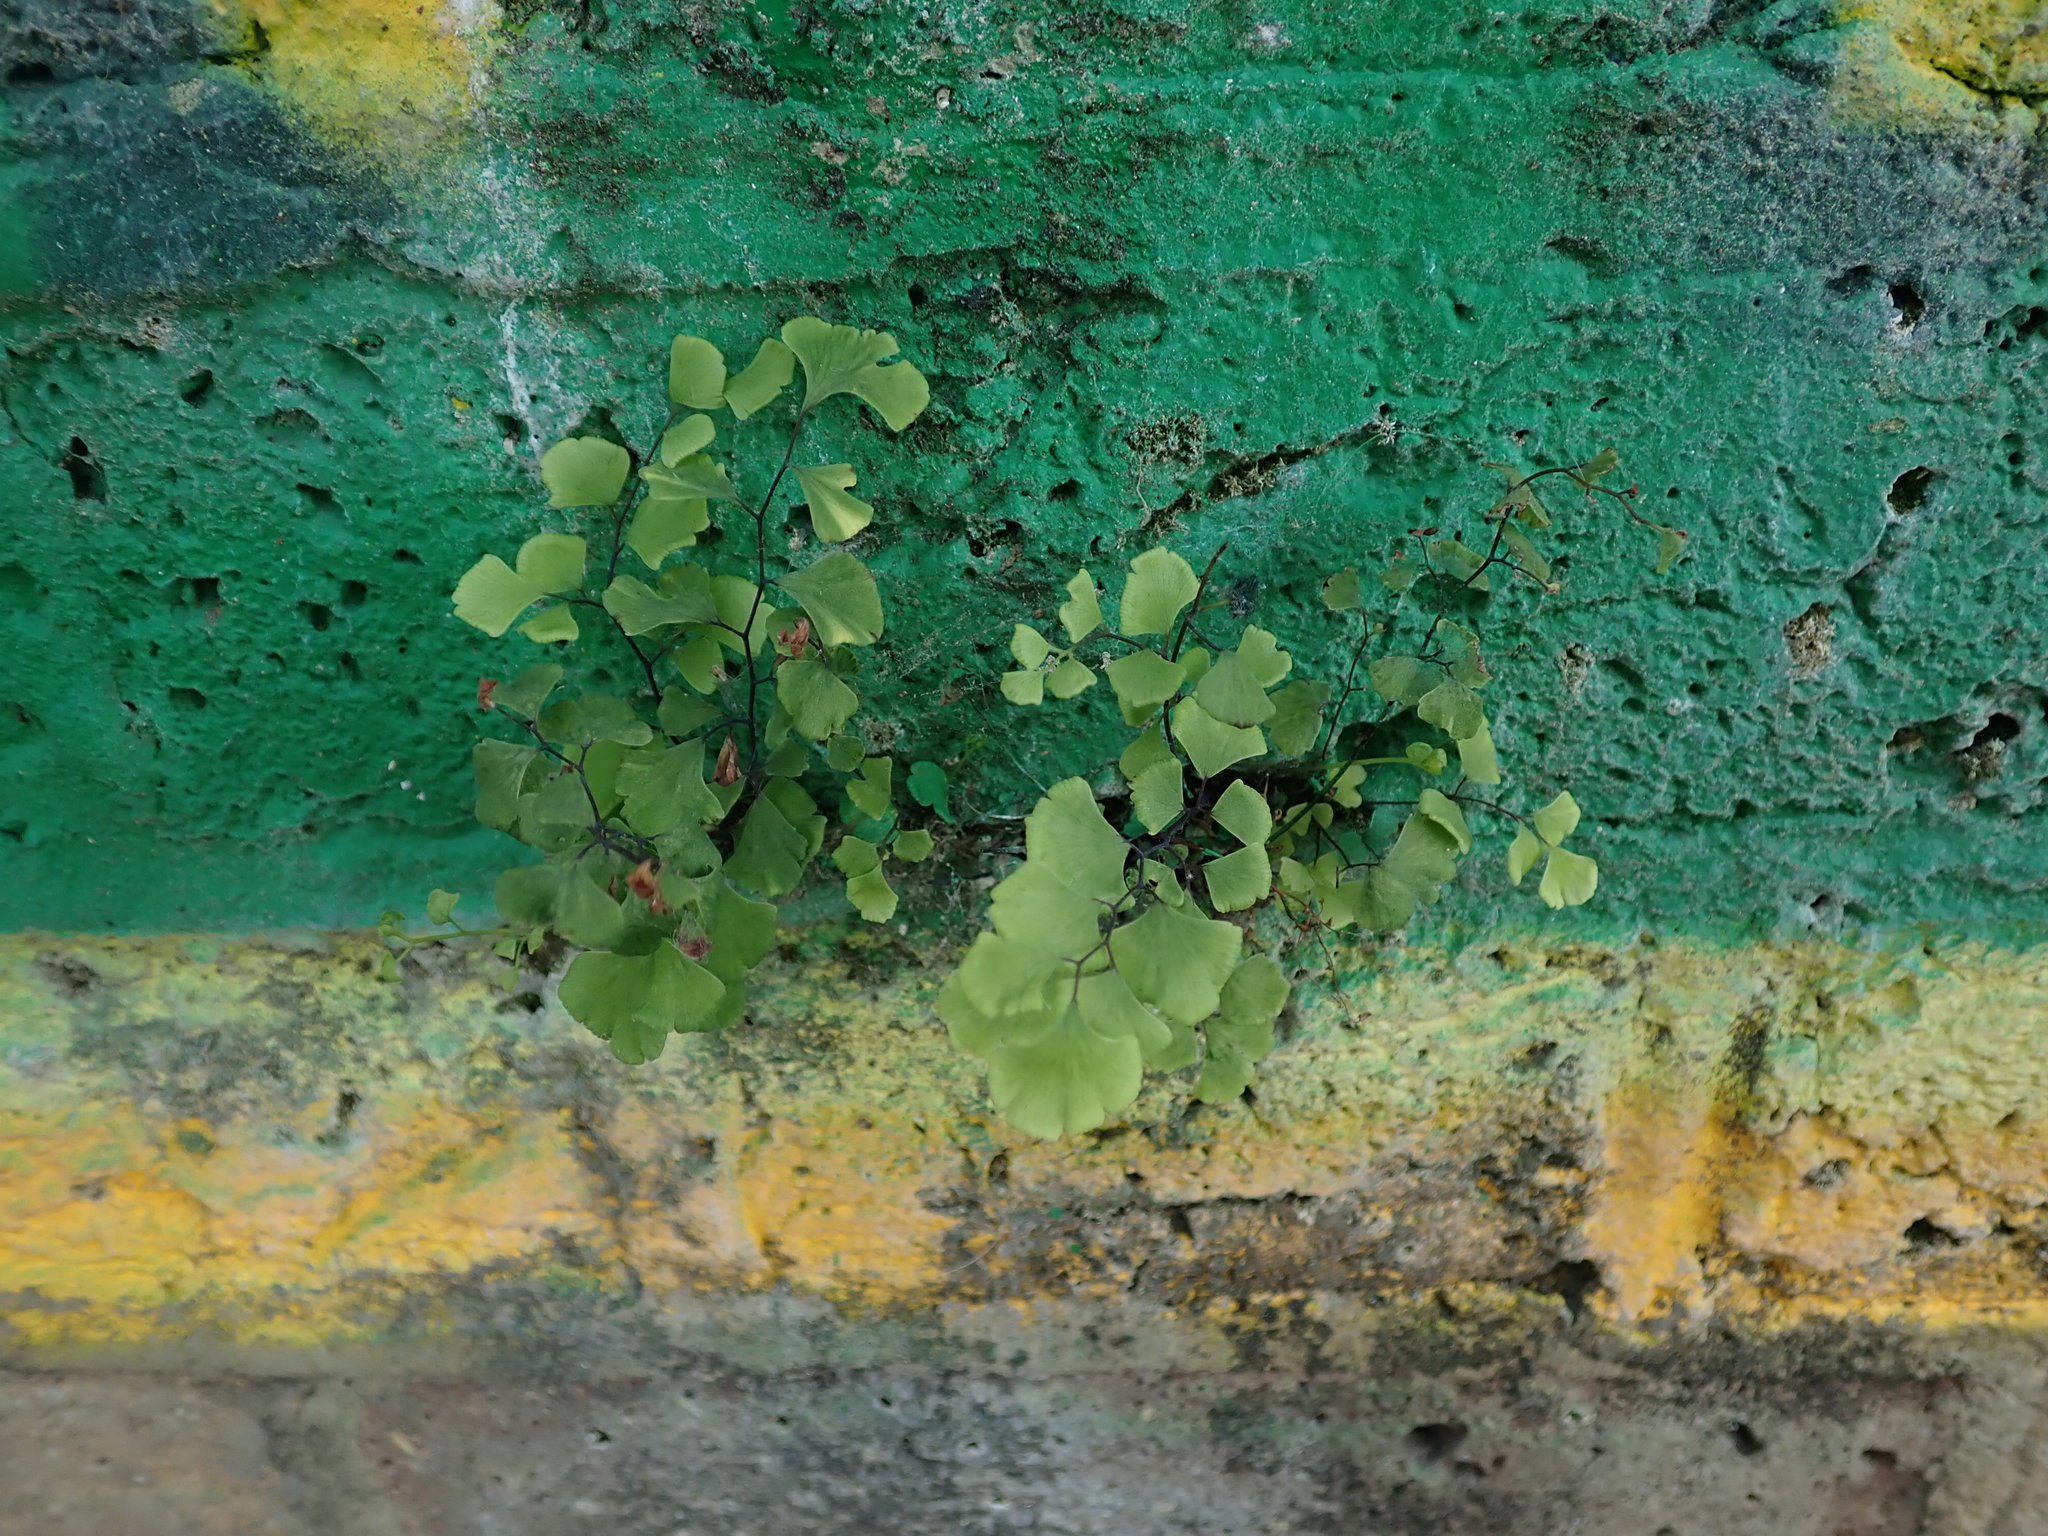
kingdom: Plantae
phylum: Tracheophyta
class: Polypodiopsida
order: Polypodiales
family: Pteridaceae
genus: Adiantum
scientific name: Adiantum capillus-veneris
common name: Maidenhair fern
